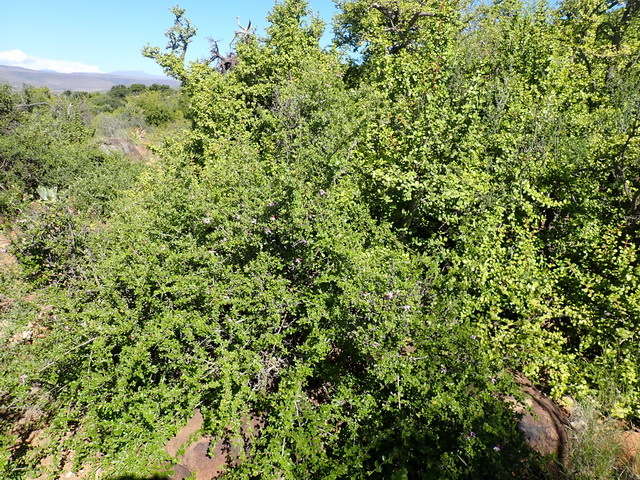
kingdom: Plantae
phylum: Tracheophyta
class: Magnoliopsida
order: Malvales
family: Malvaceae
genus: Grewia
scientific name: Grewia robusta
